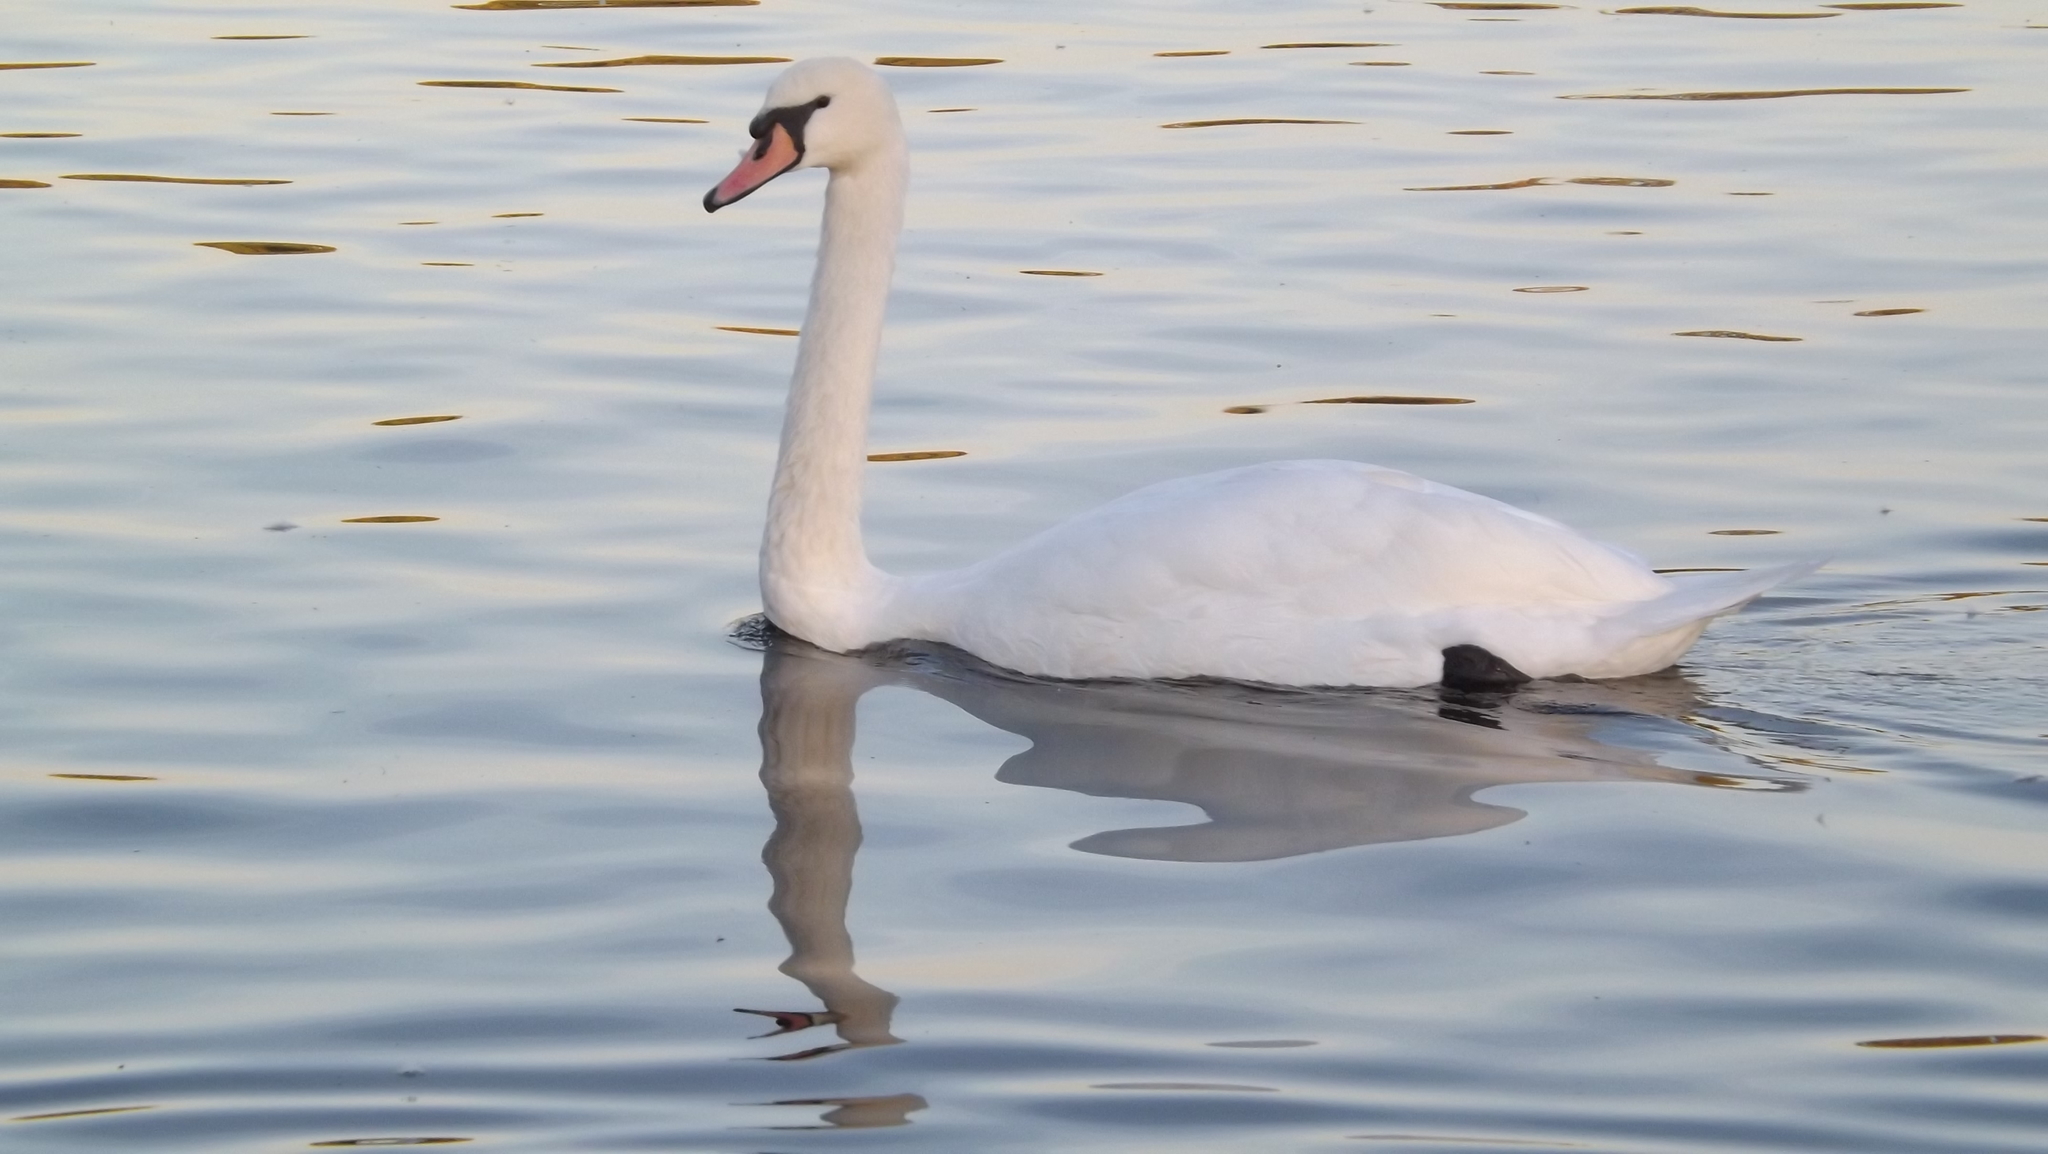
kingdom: Animalia
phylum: Chordata
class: Aves
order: Anseriformes
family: Anatidae
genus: Cygnus
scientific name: Cygnus olor
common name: Mute swan
